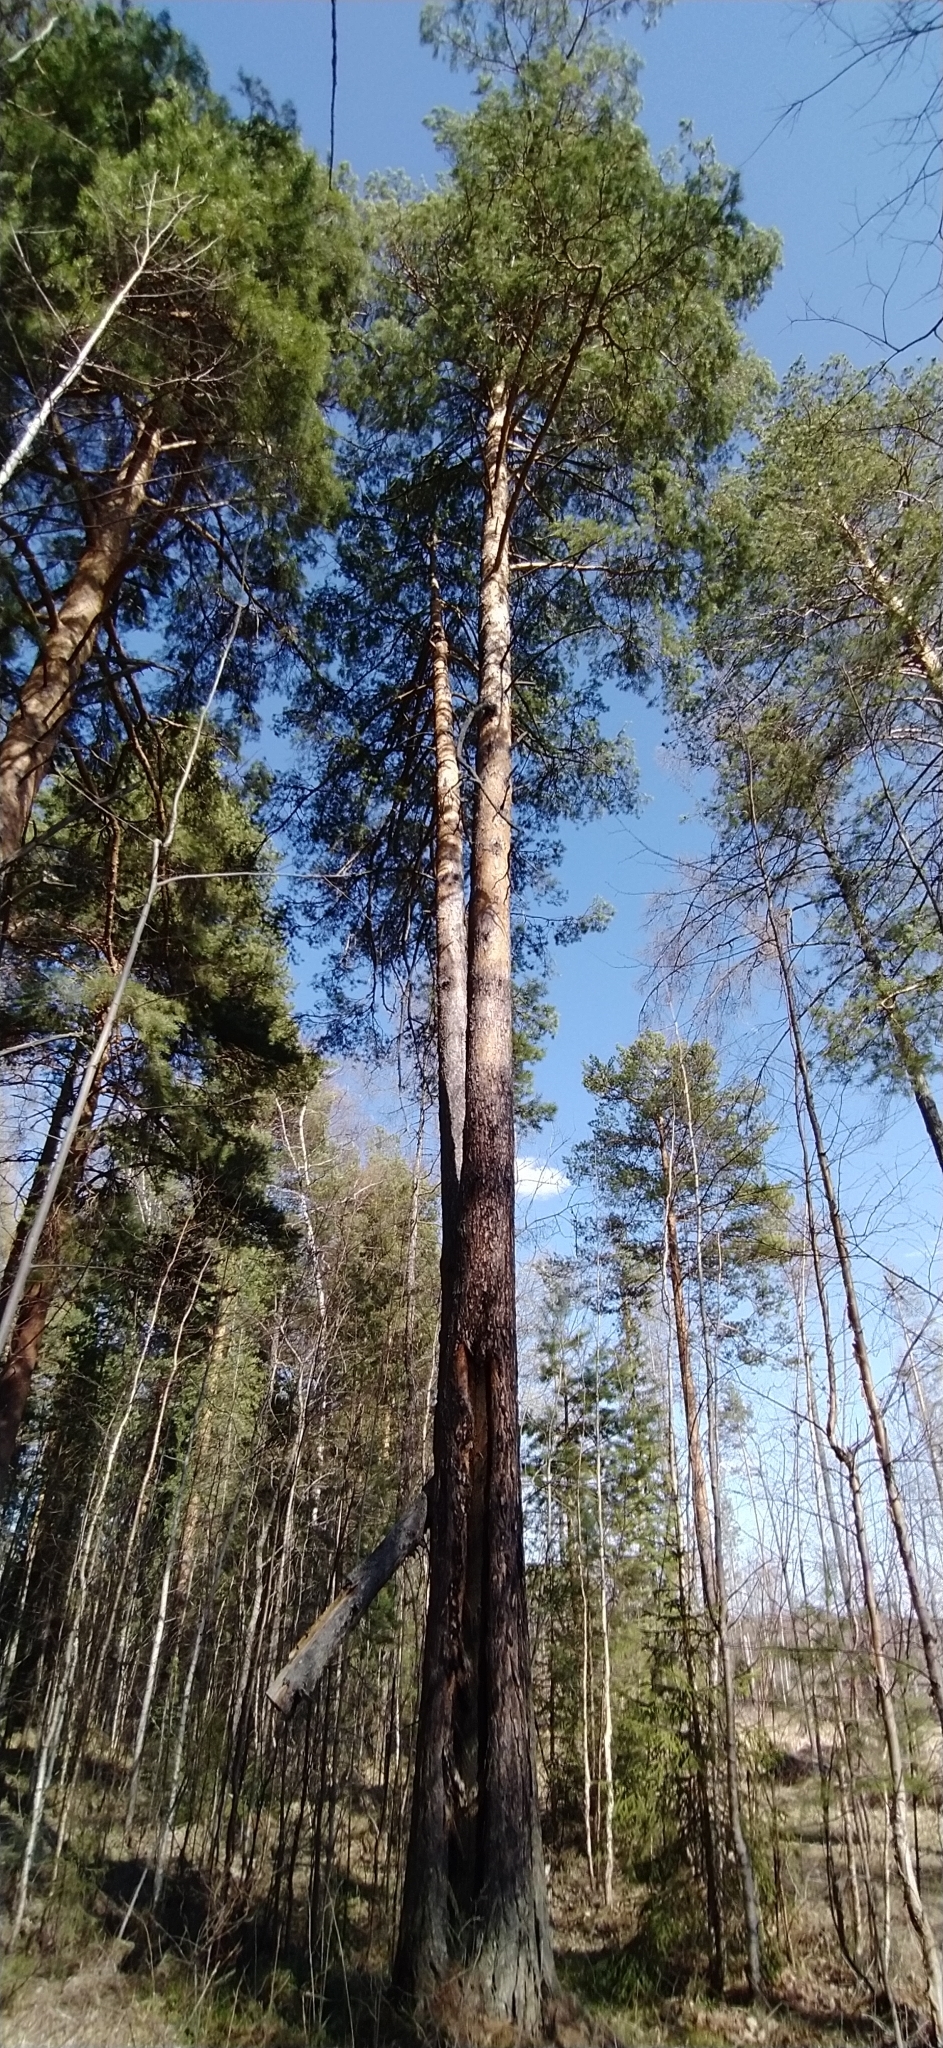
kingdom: Plantae
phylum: Tracheophyta
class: Pinopsida
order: Pinales
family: Pinaceae
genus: Pinus
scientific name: Pinus sylvestris
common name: Scots pine
